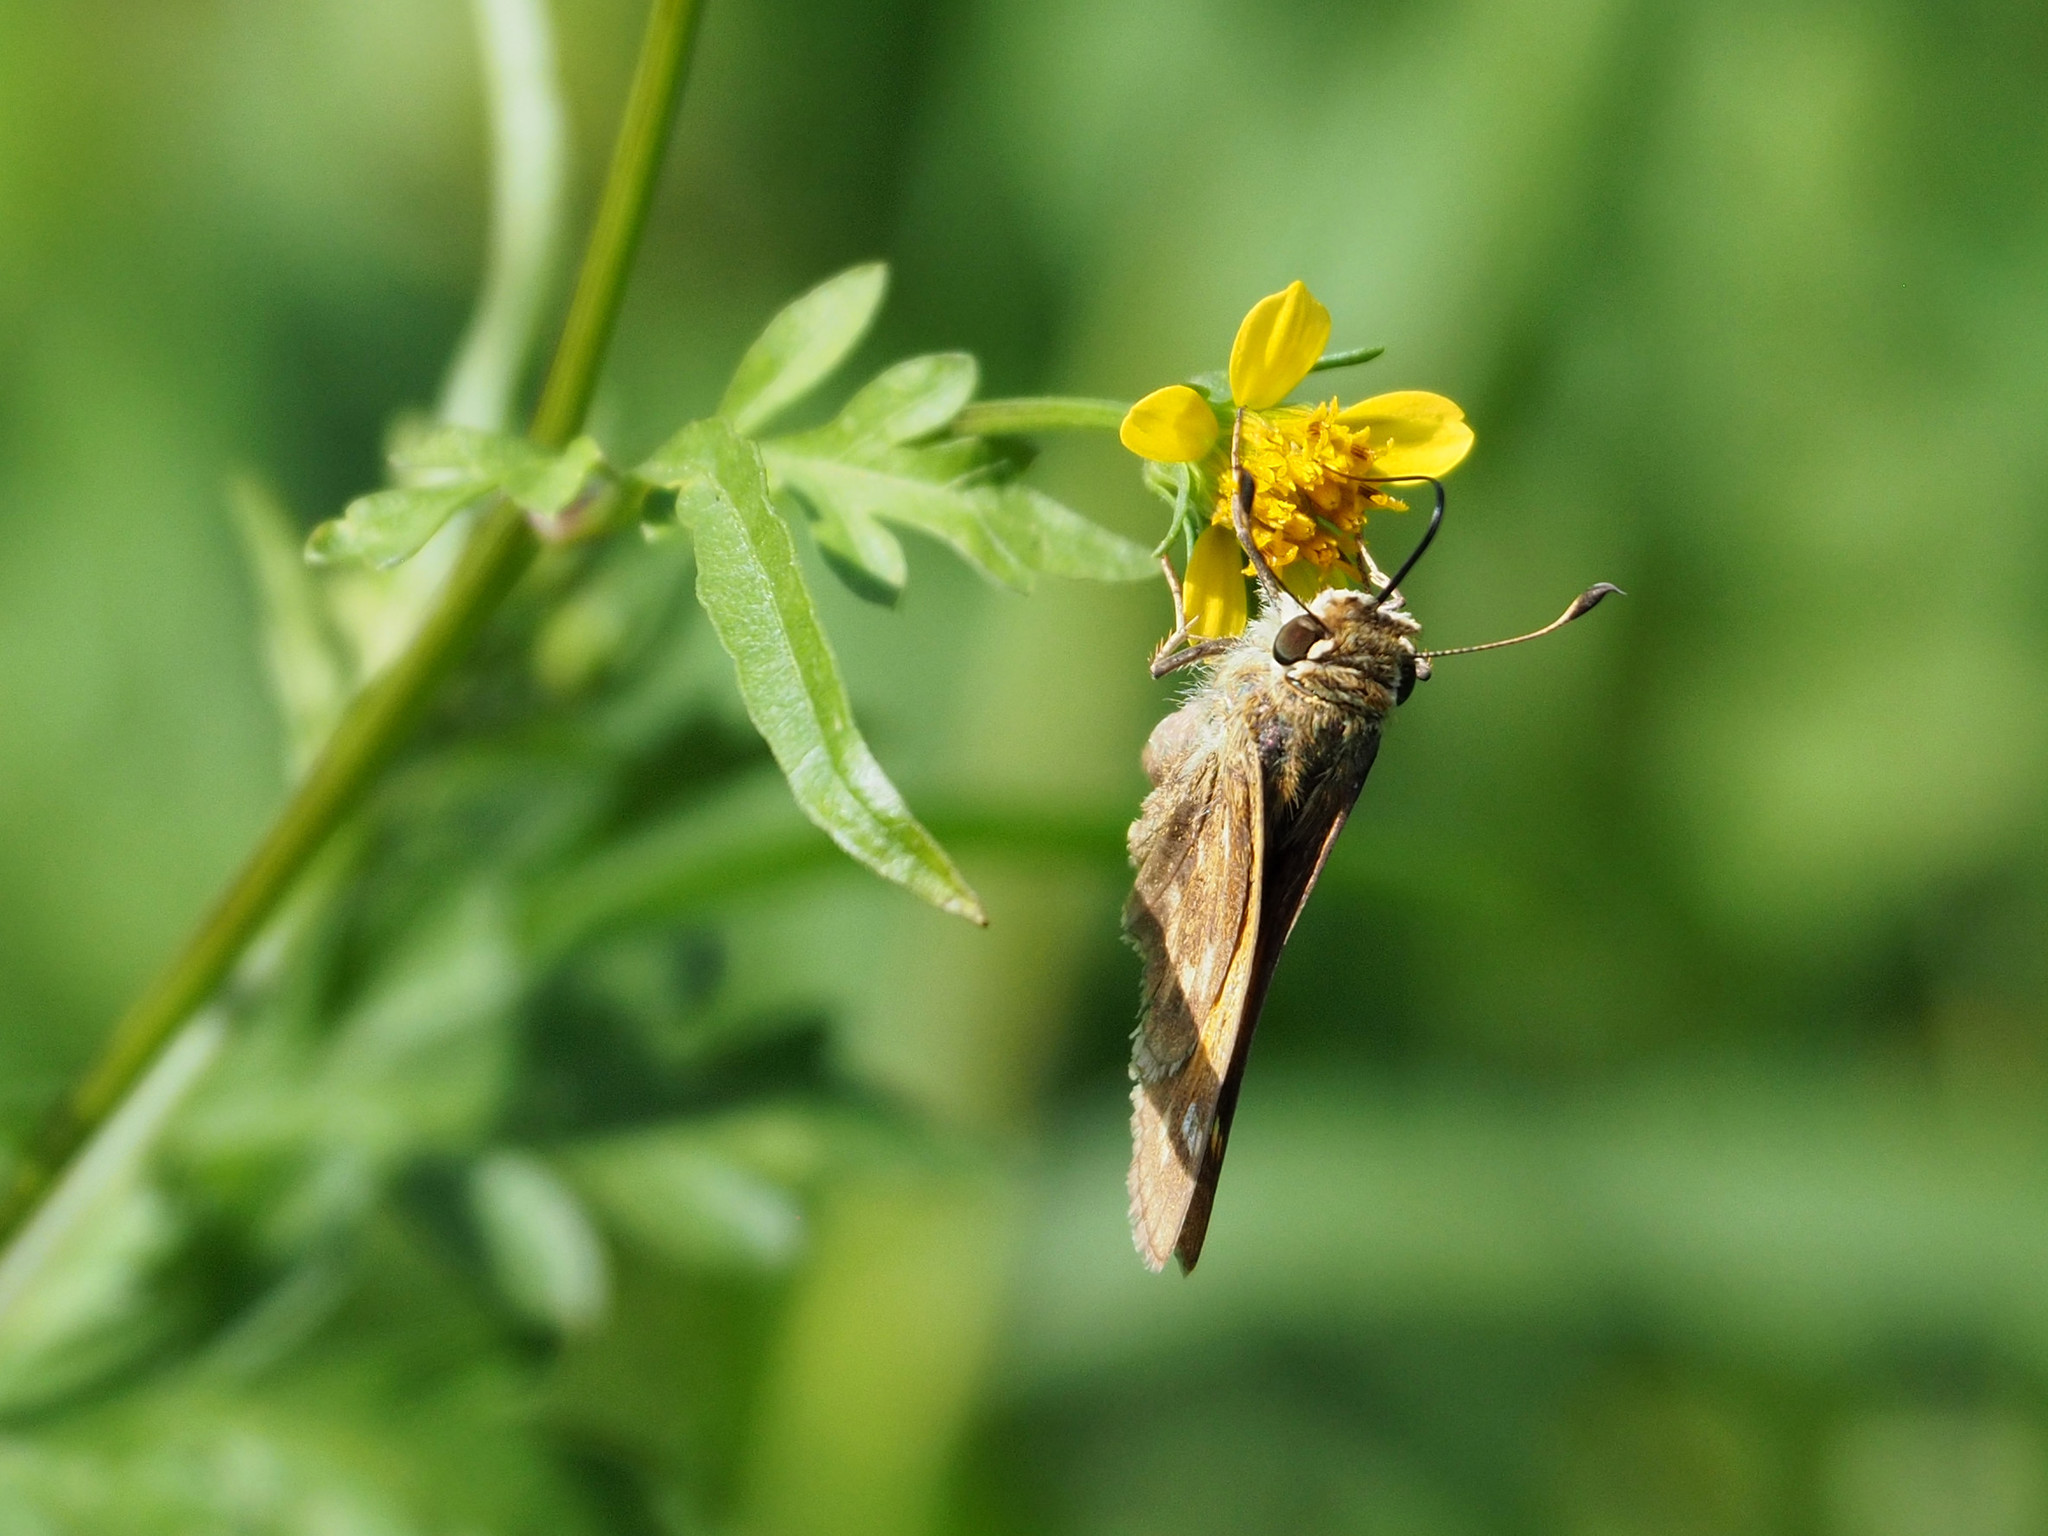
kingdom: Animalia
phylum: Arthropoda
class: Insecta
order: Lepidoptera
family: Hesperiidae
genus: Atalopedes
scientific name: Atalopedes
